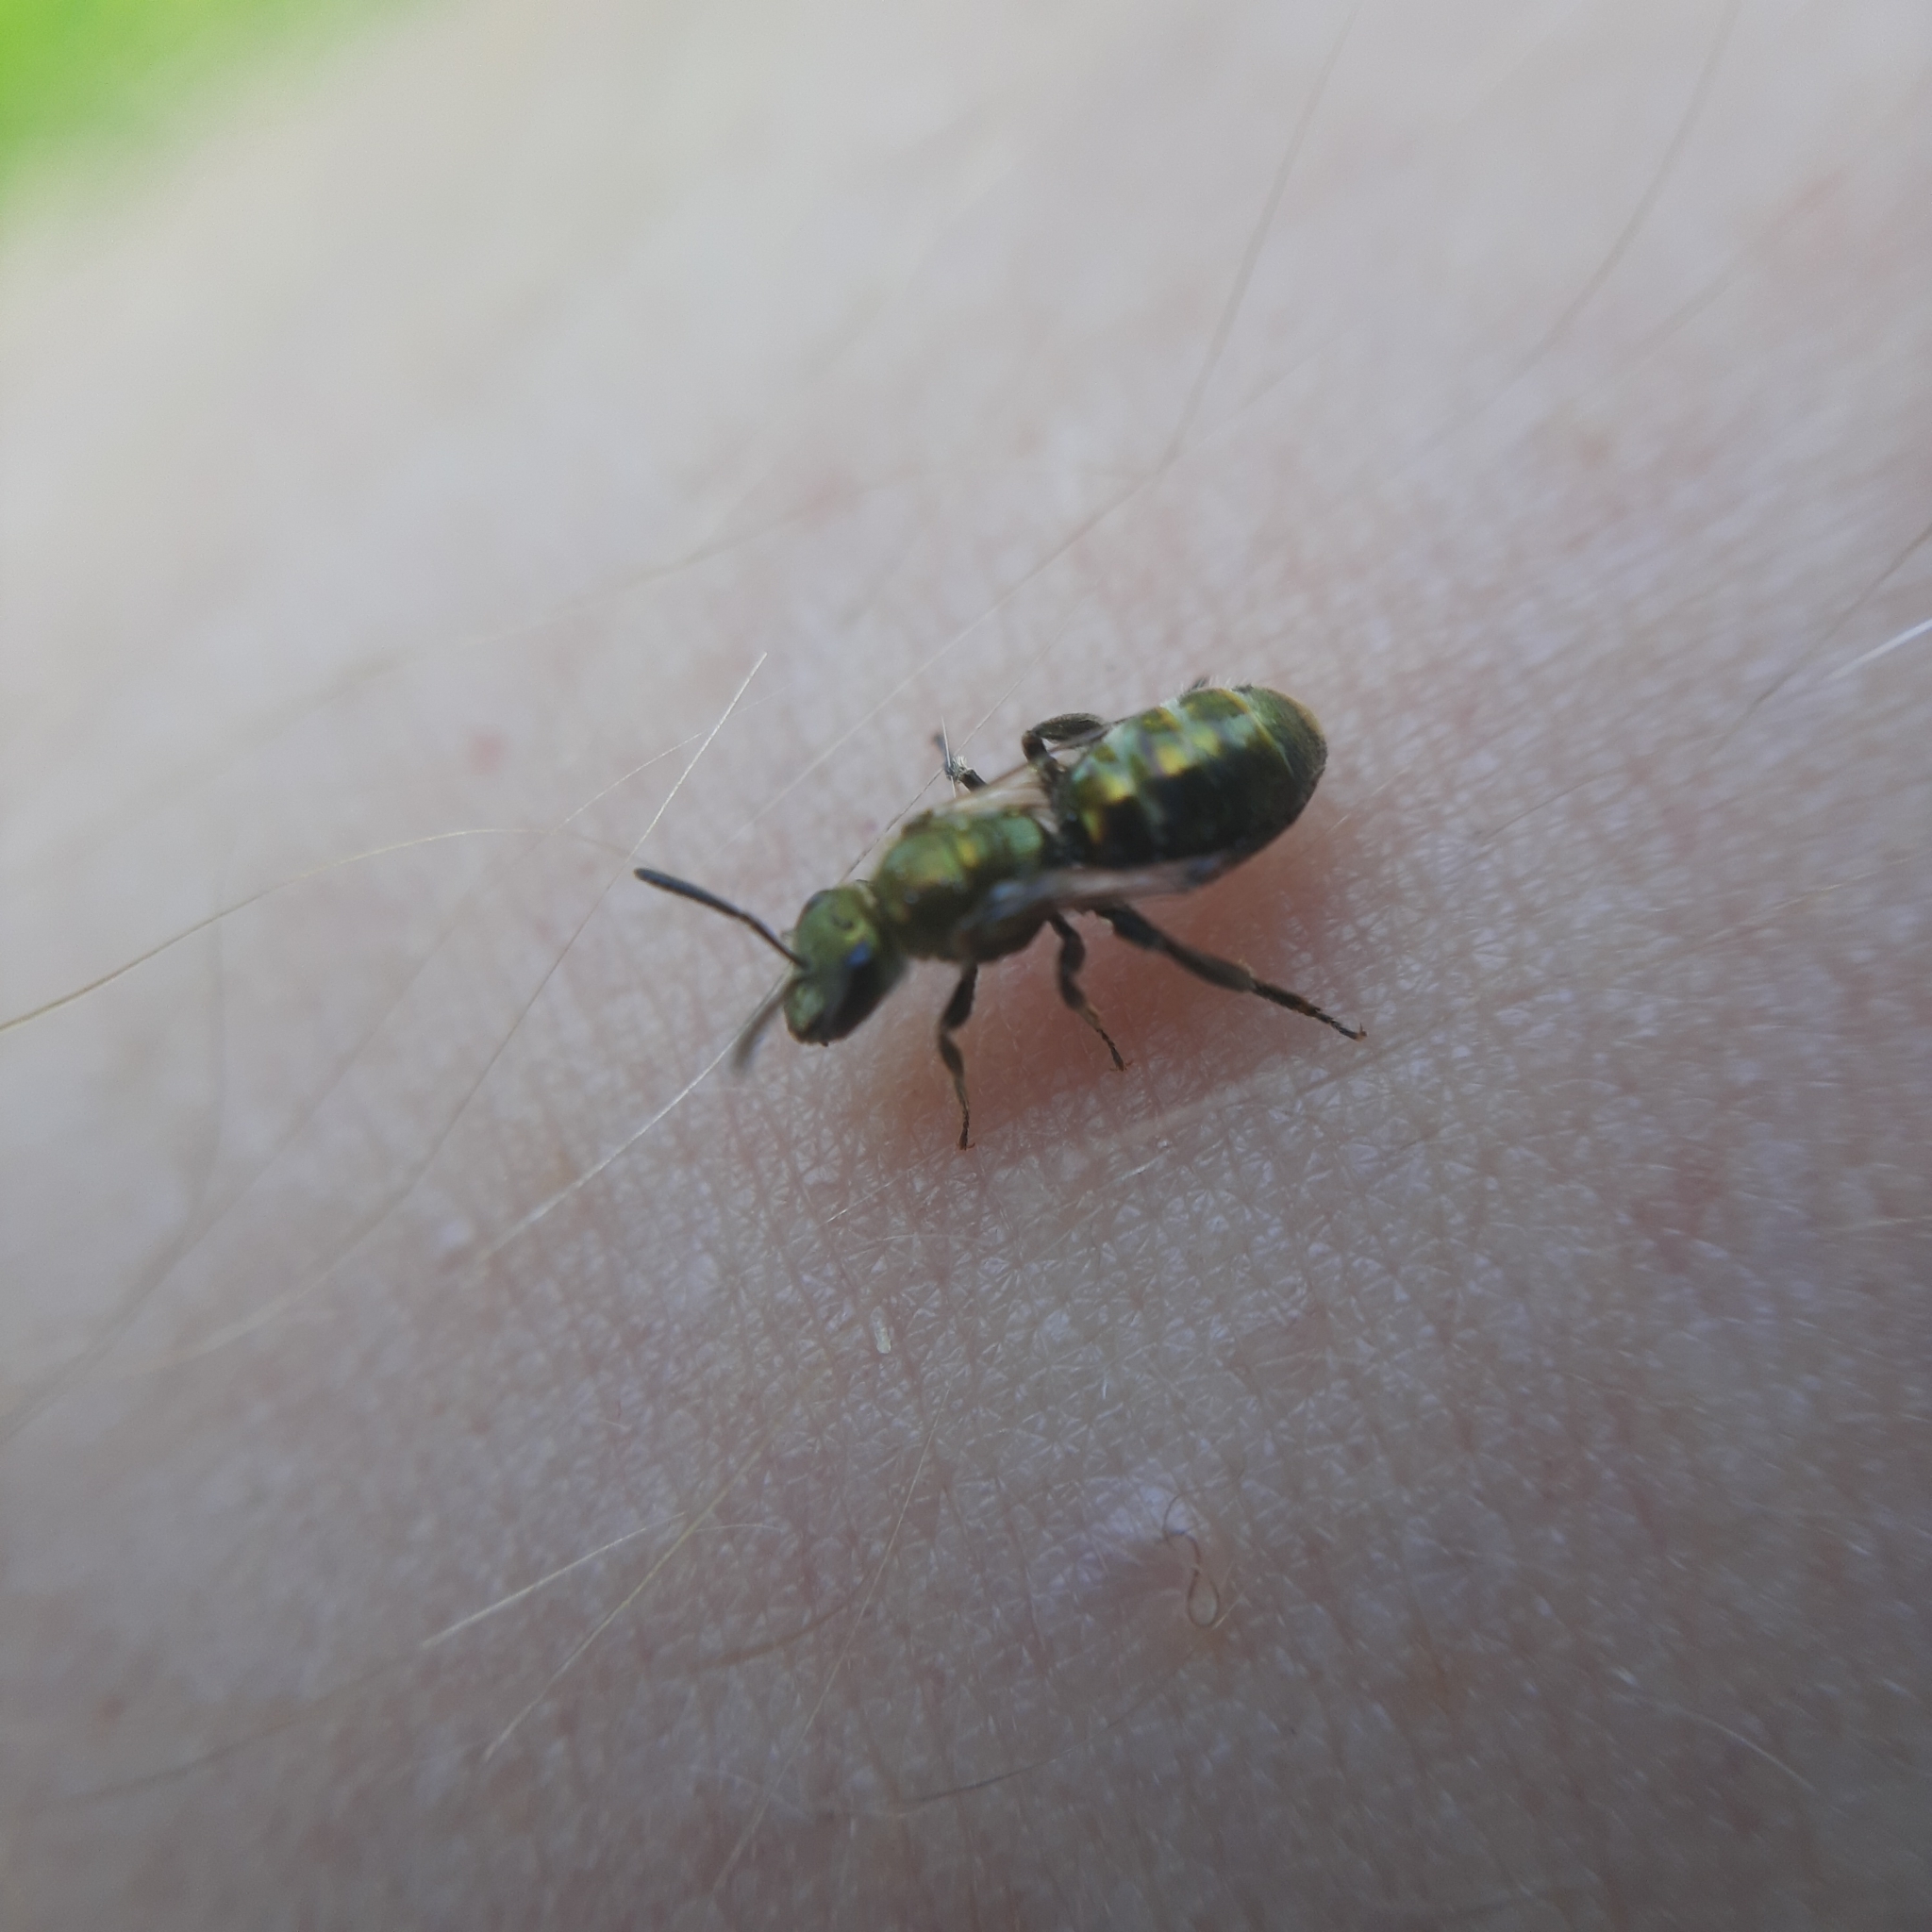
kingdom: Animalia
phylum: Arthropoda
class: Insecta
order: Hymenoptera
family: Halictidae
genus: Lasioglossum
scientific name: Lasioglossum
